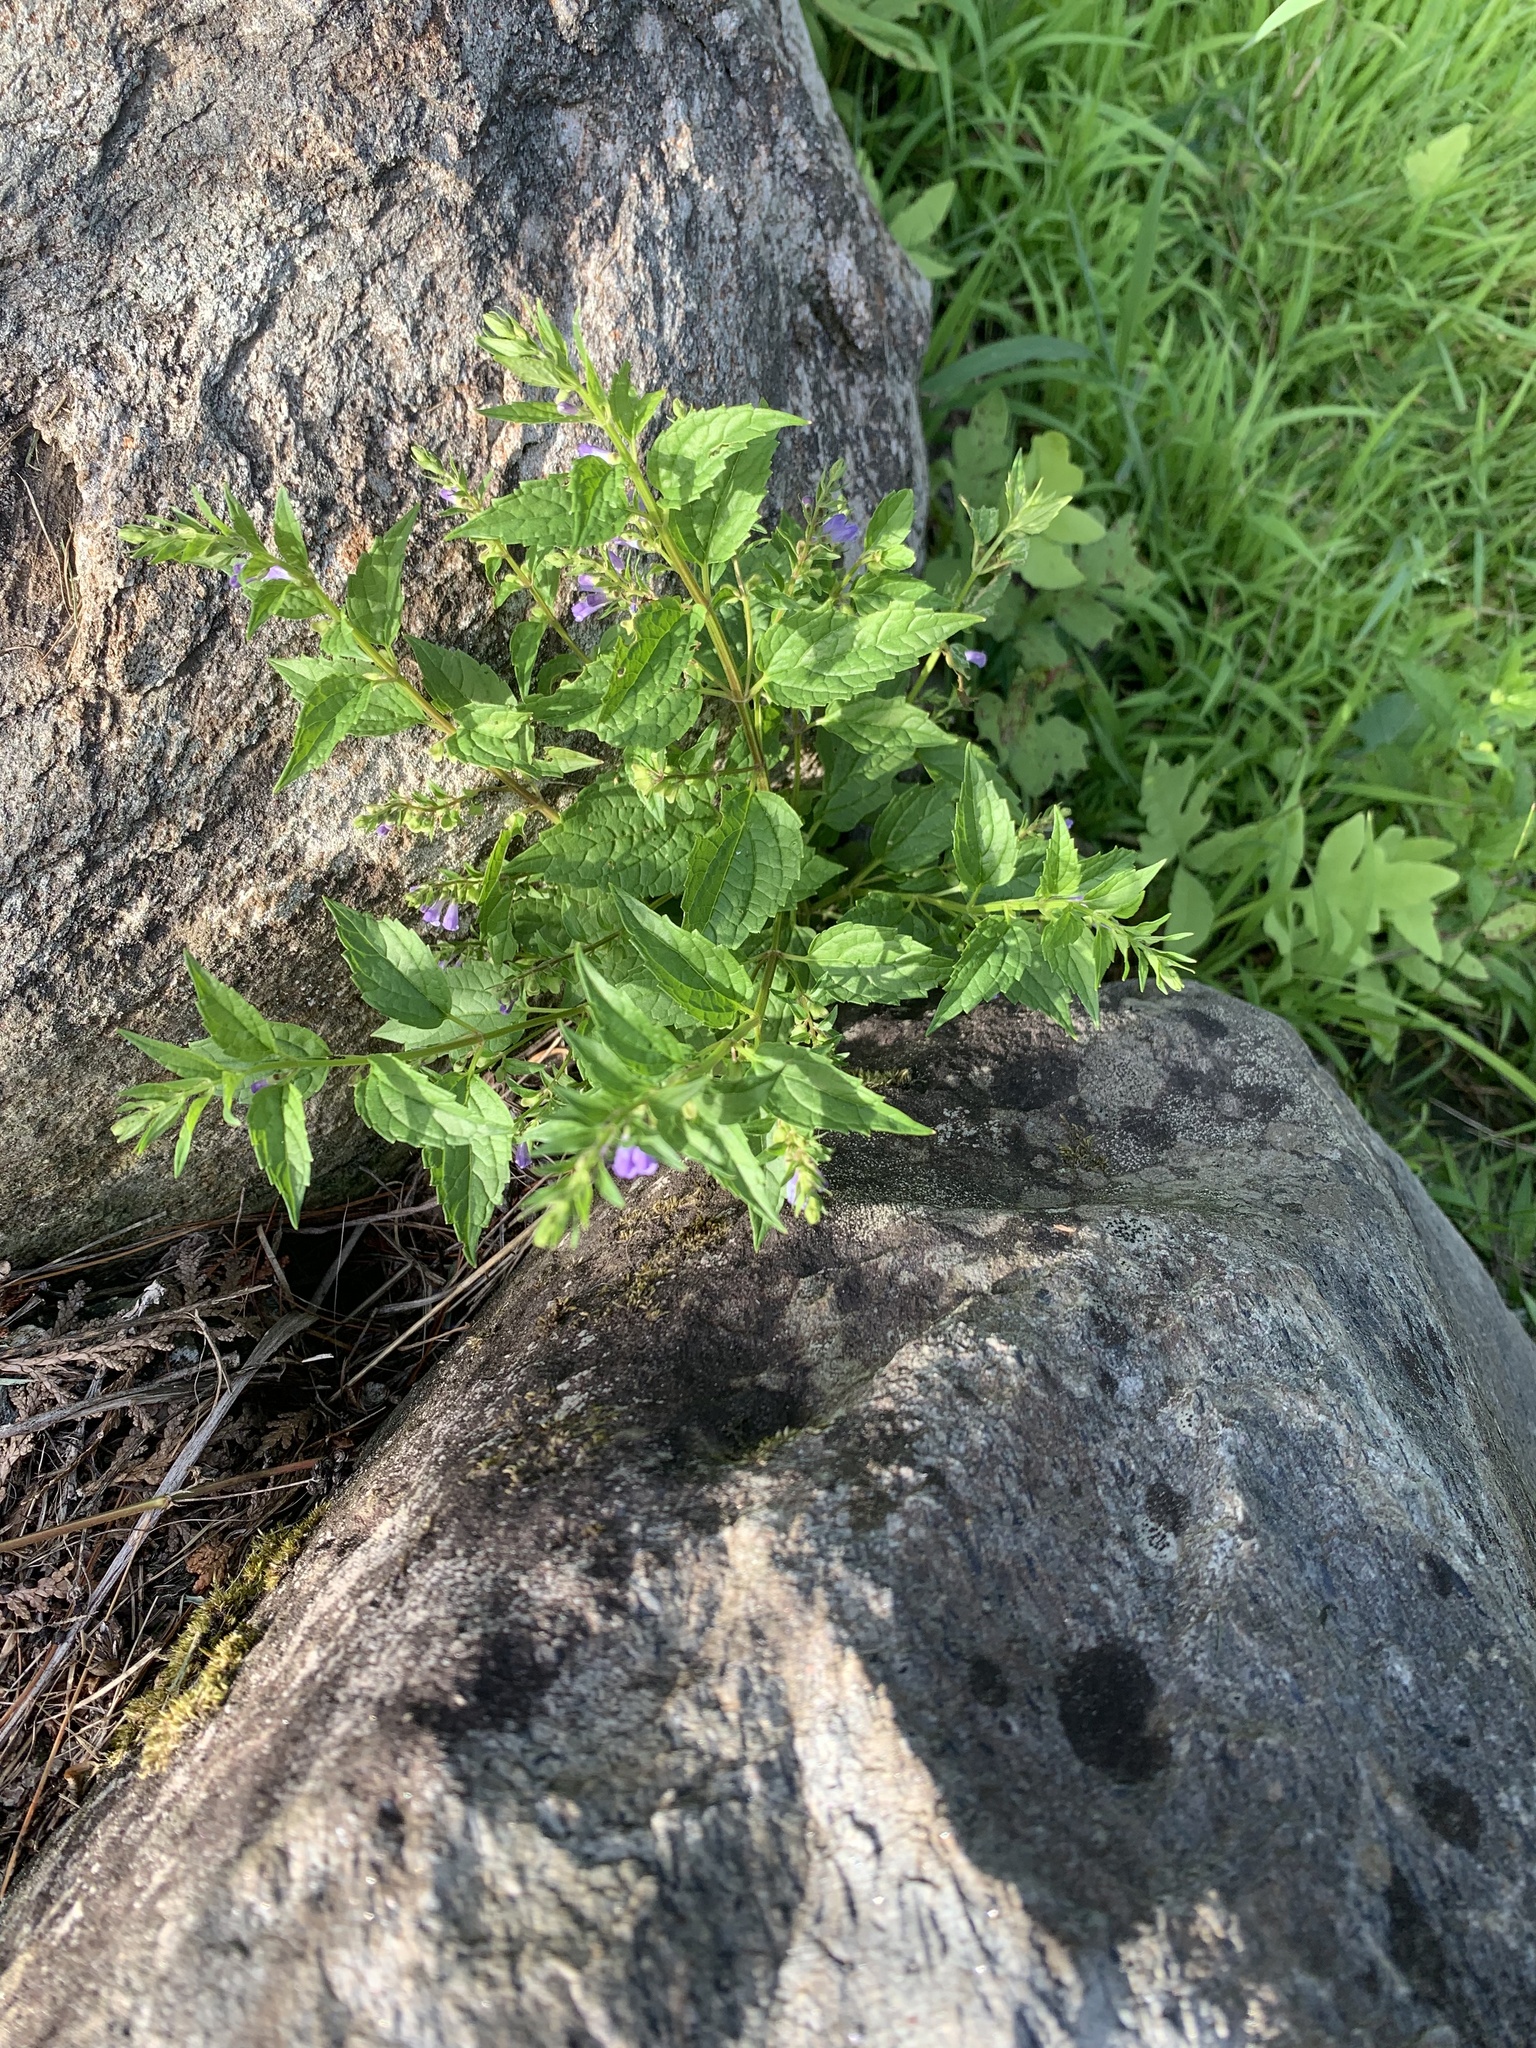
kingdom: Plantae
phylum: Tracheophyta
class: Magnoliopsida
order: Lamiales
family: Lamiaceae
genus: Scutellaria
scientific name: Scutellaria lateriflora
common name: Blue skullcap
